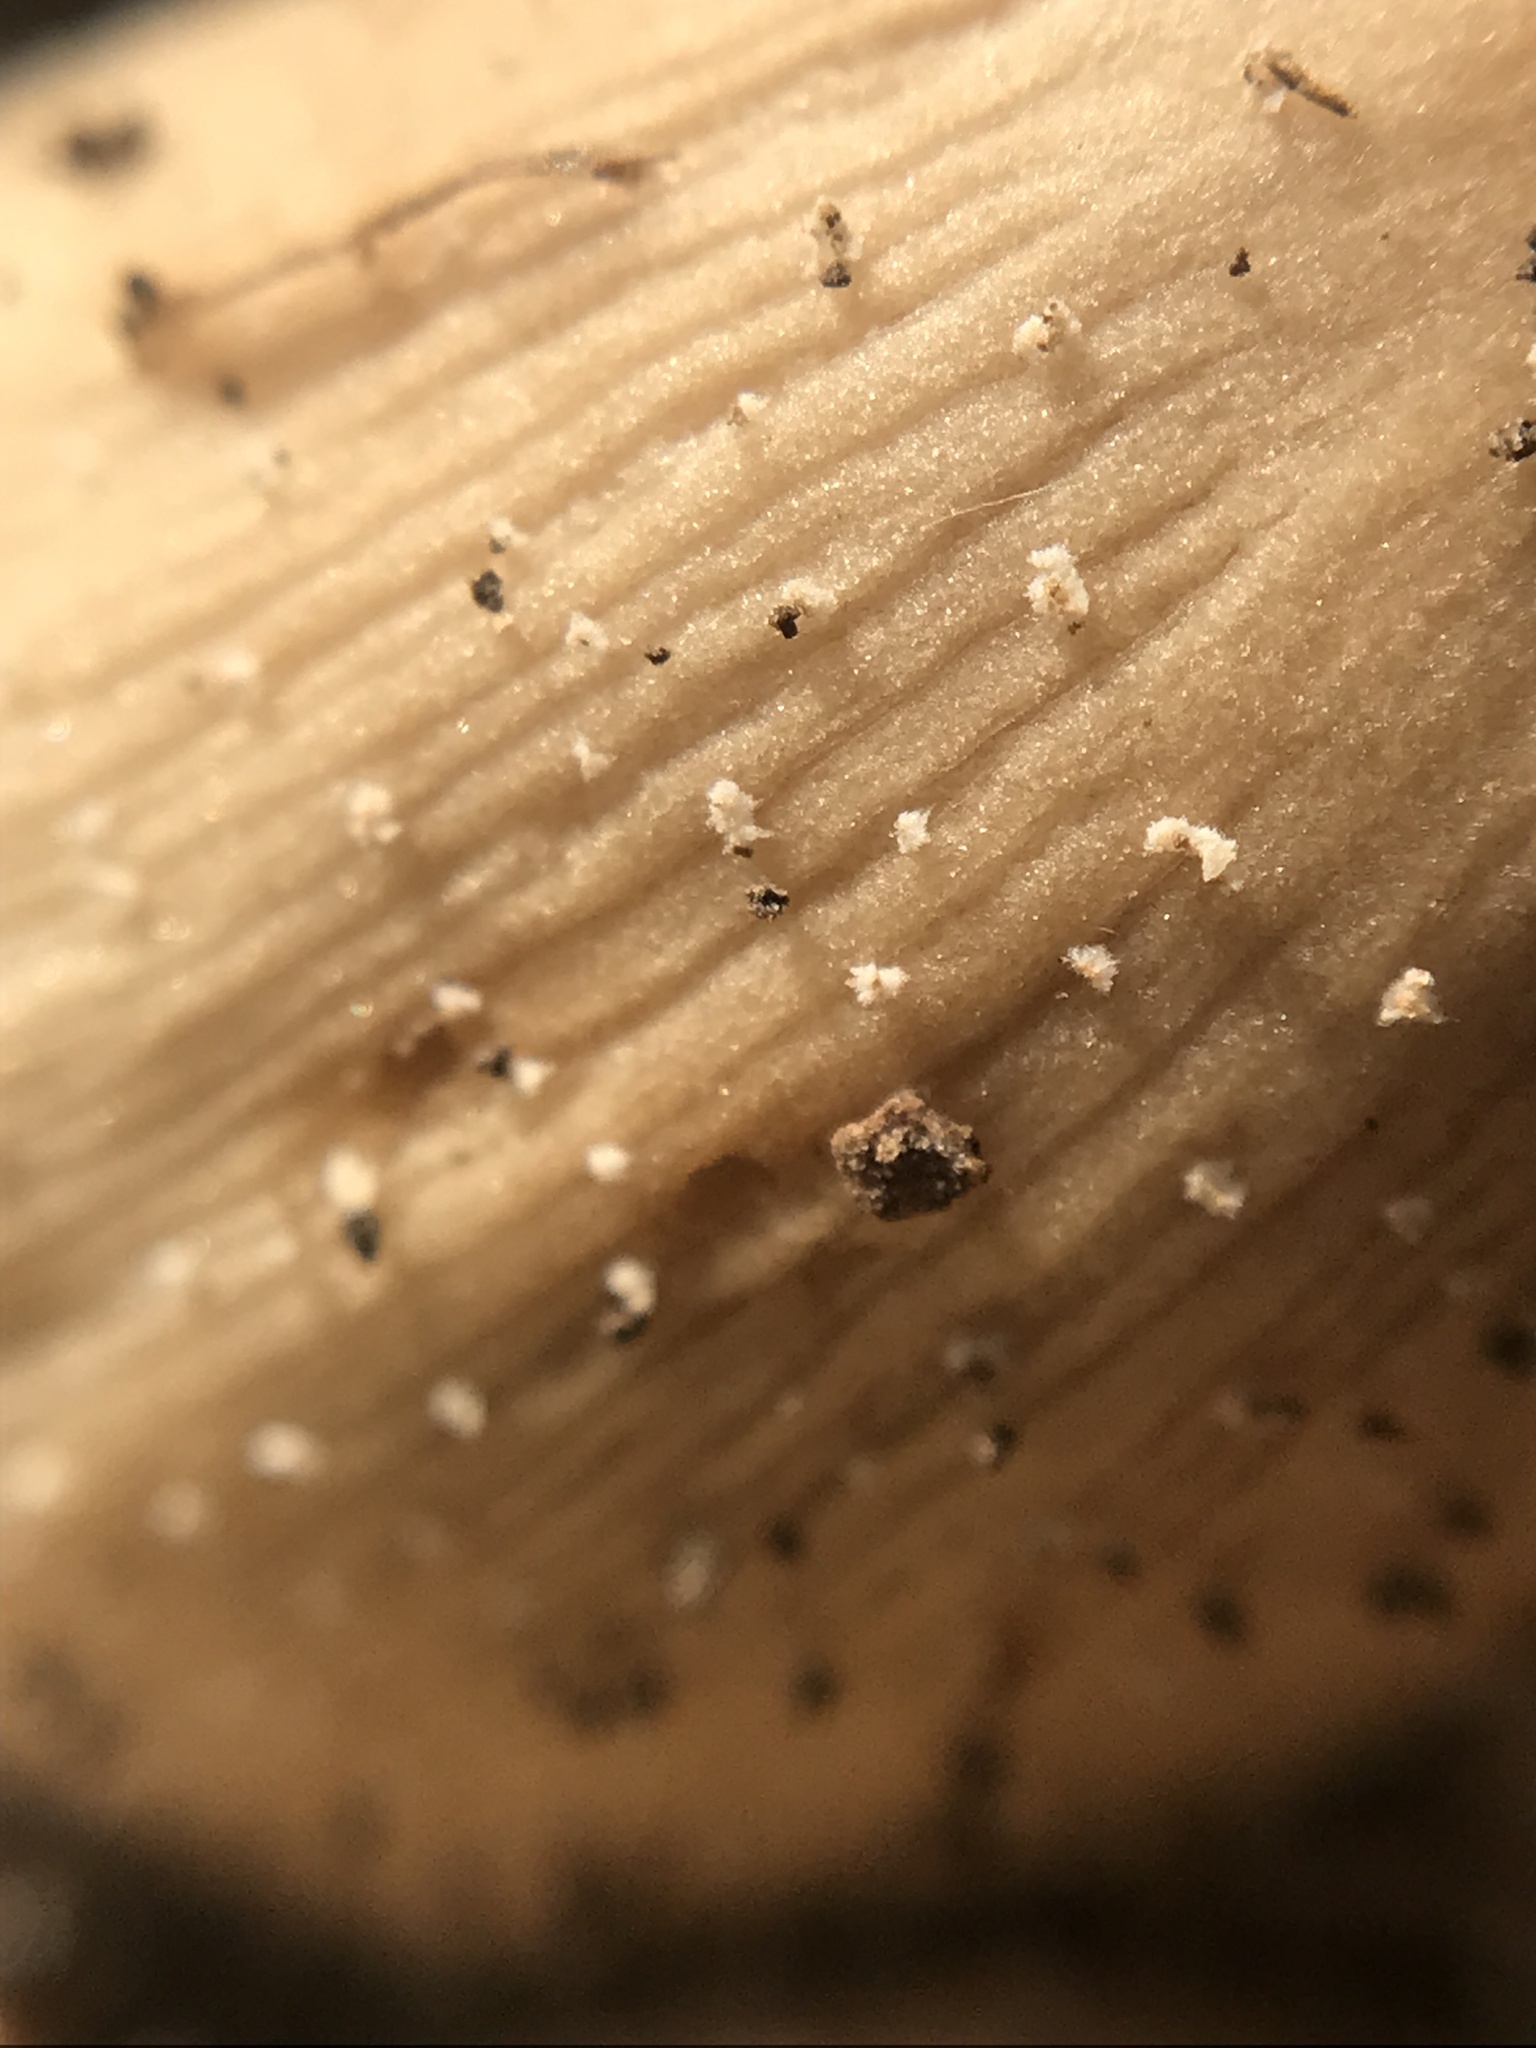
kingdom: Fungi
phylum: Basidiomycota
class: Agaricomycetes
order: Agaricales
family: Psathyrellaceae
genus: Coprinellus
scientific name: Coprinellus micaceus
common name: Glistening ink-cap
